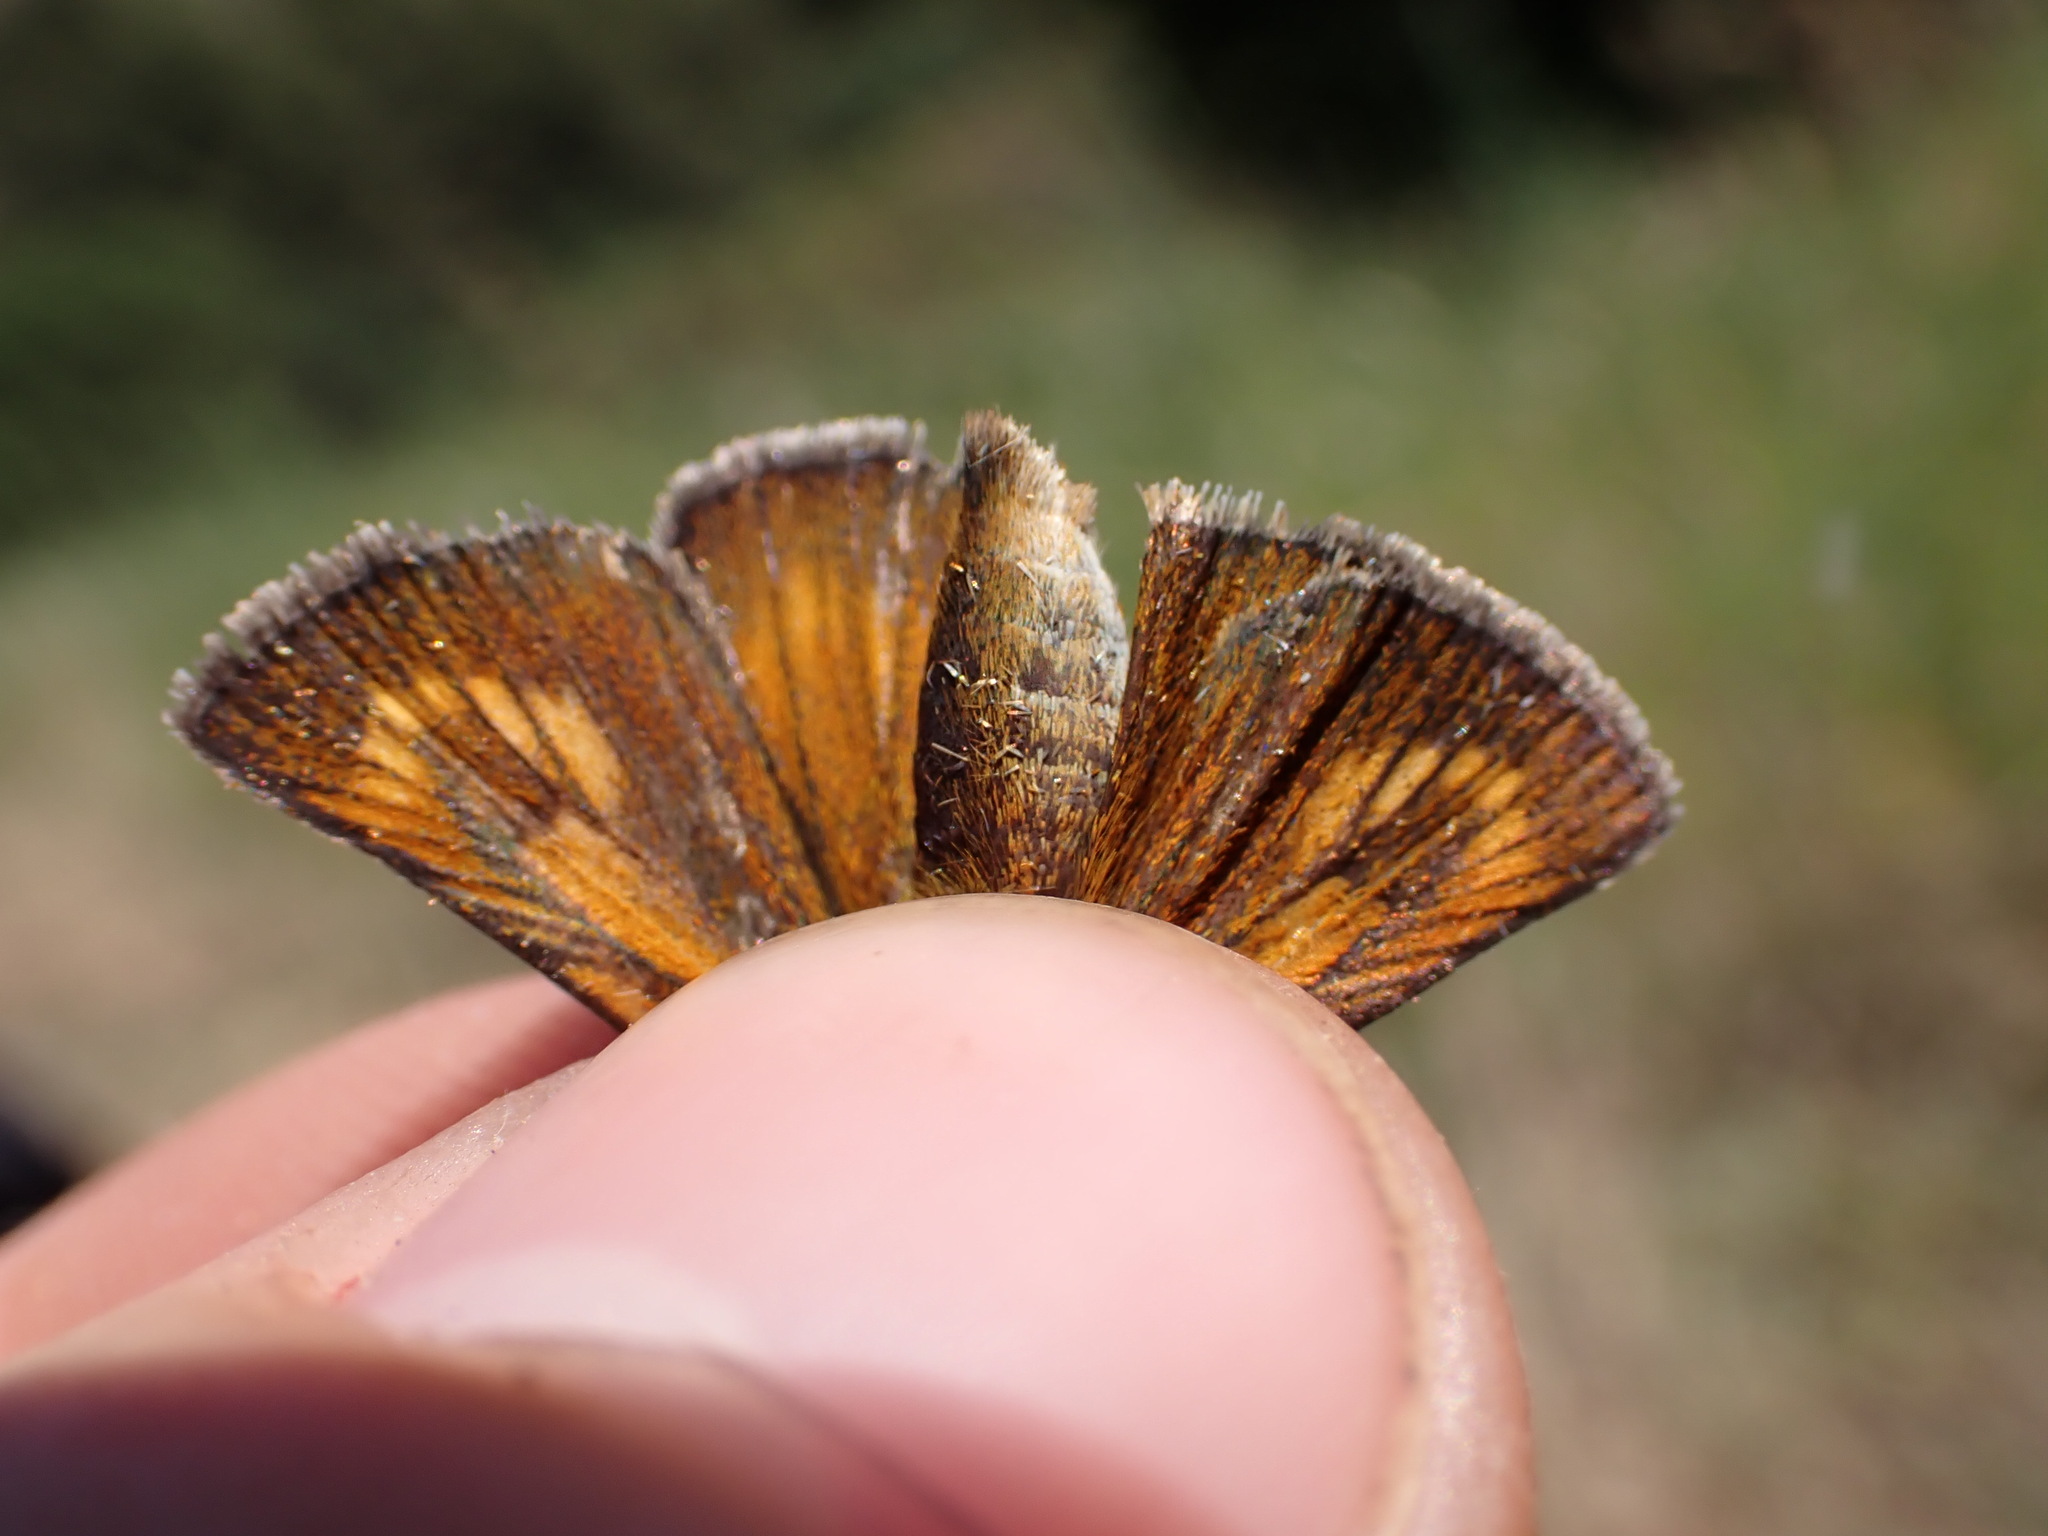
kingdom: Animalia
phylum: Arthropoda
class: Insecta
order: Lepidoptera
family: Hesperiidae
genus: Thymelicus
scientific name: Thymelicus acteon
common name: Lulworth skipper
